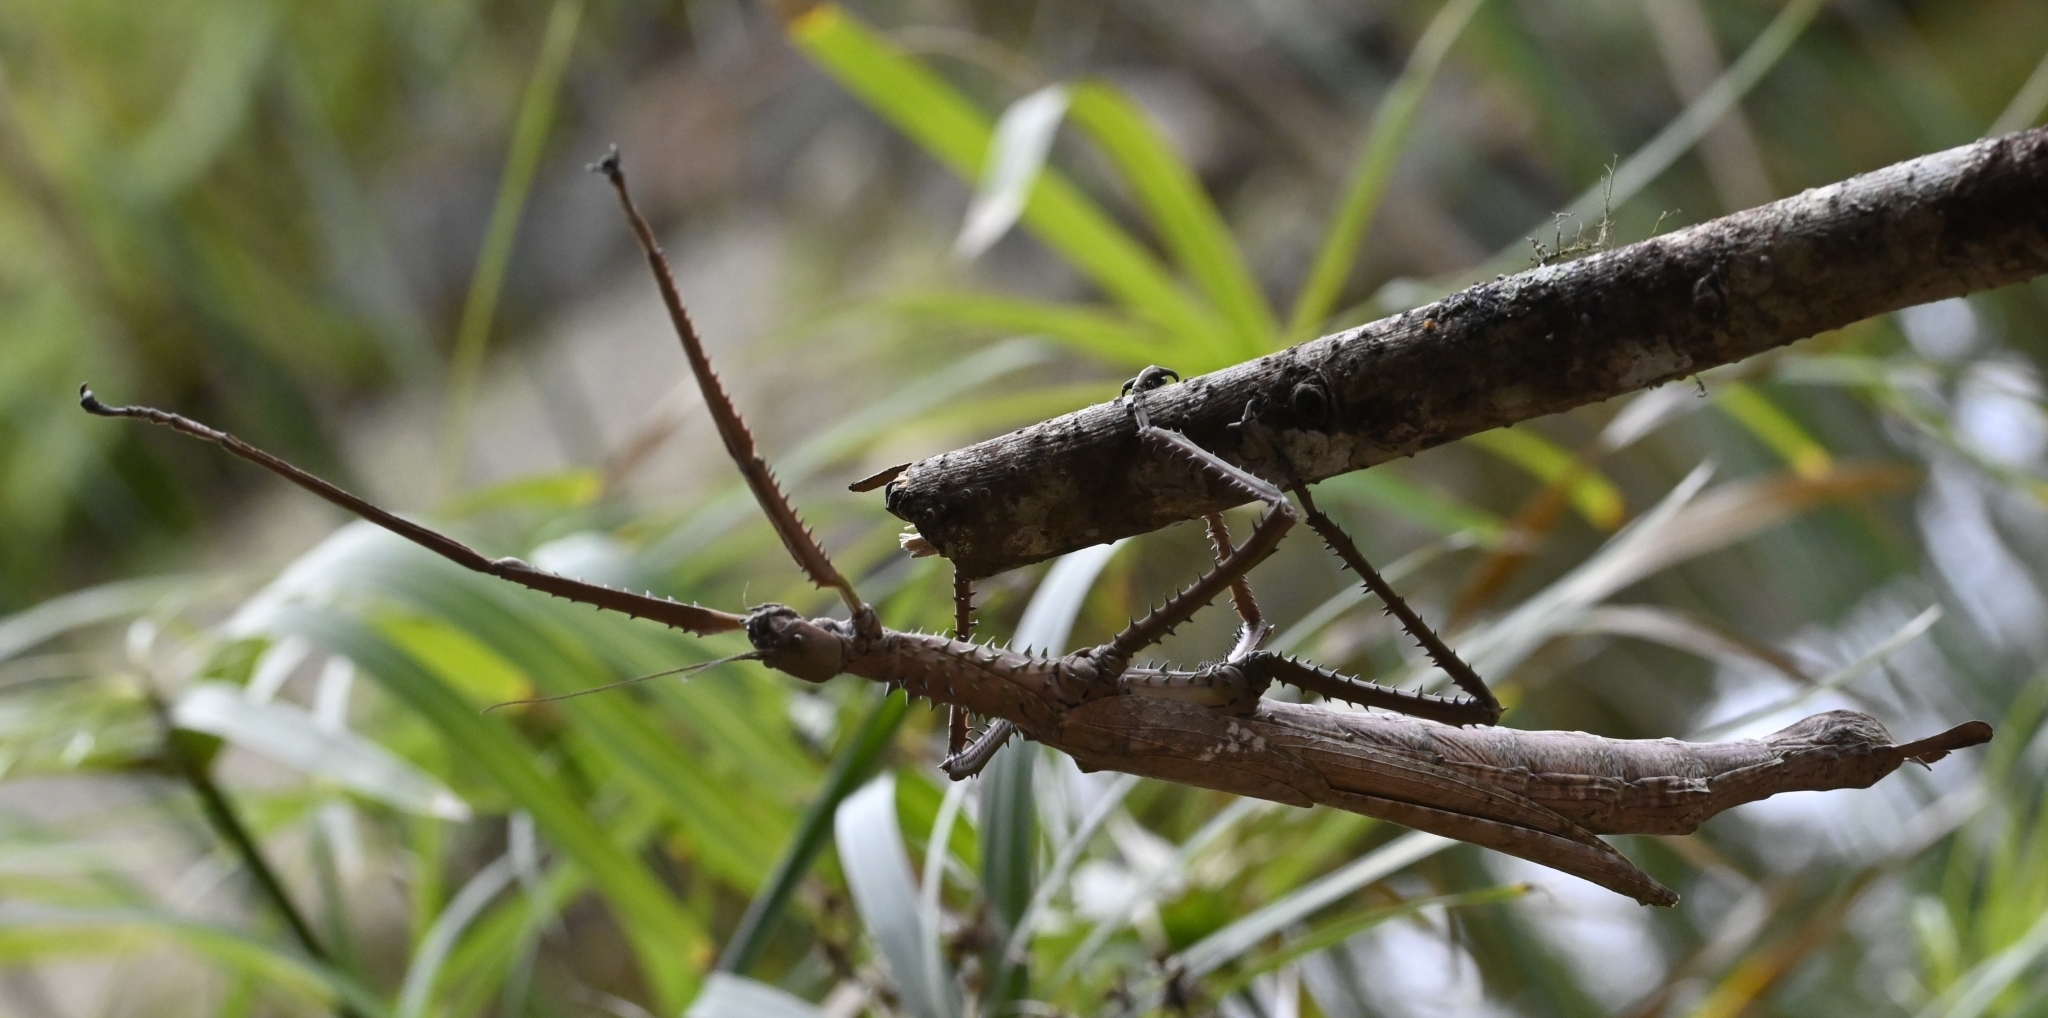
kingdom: Animalia
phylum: Arthropoda
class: Insecta
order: Phasmida
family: Phasmatidae
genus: Phasma
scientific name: Phasma reinwardtii
